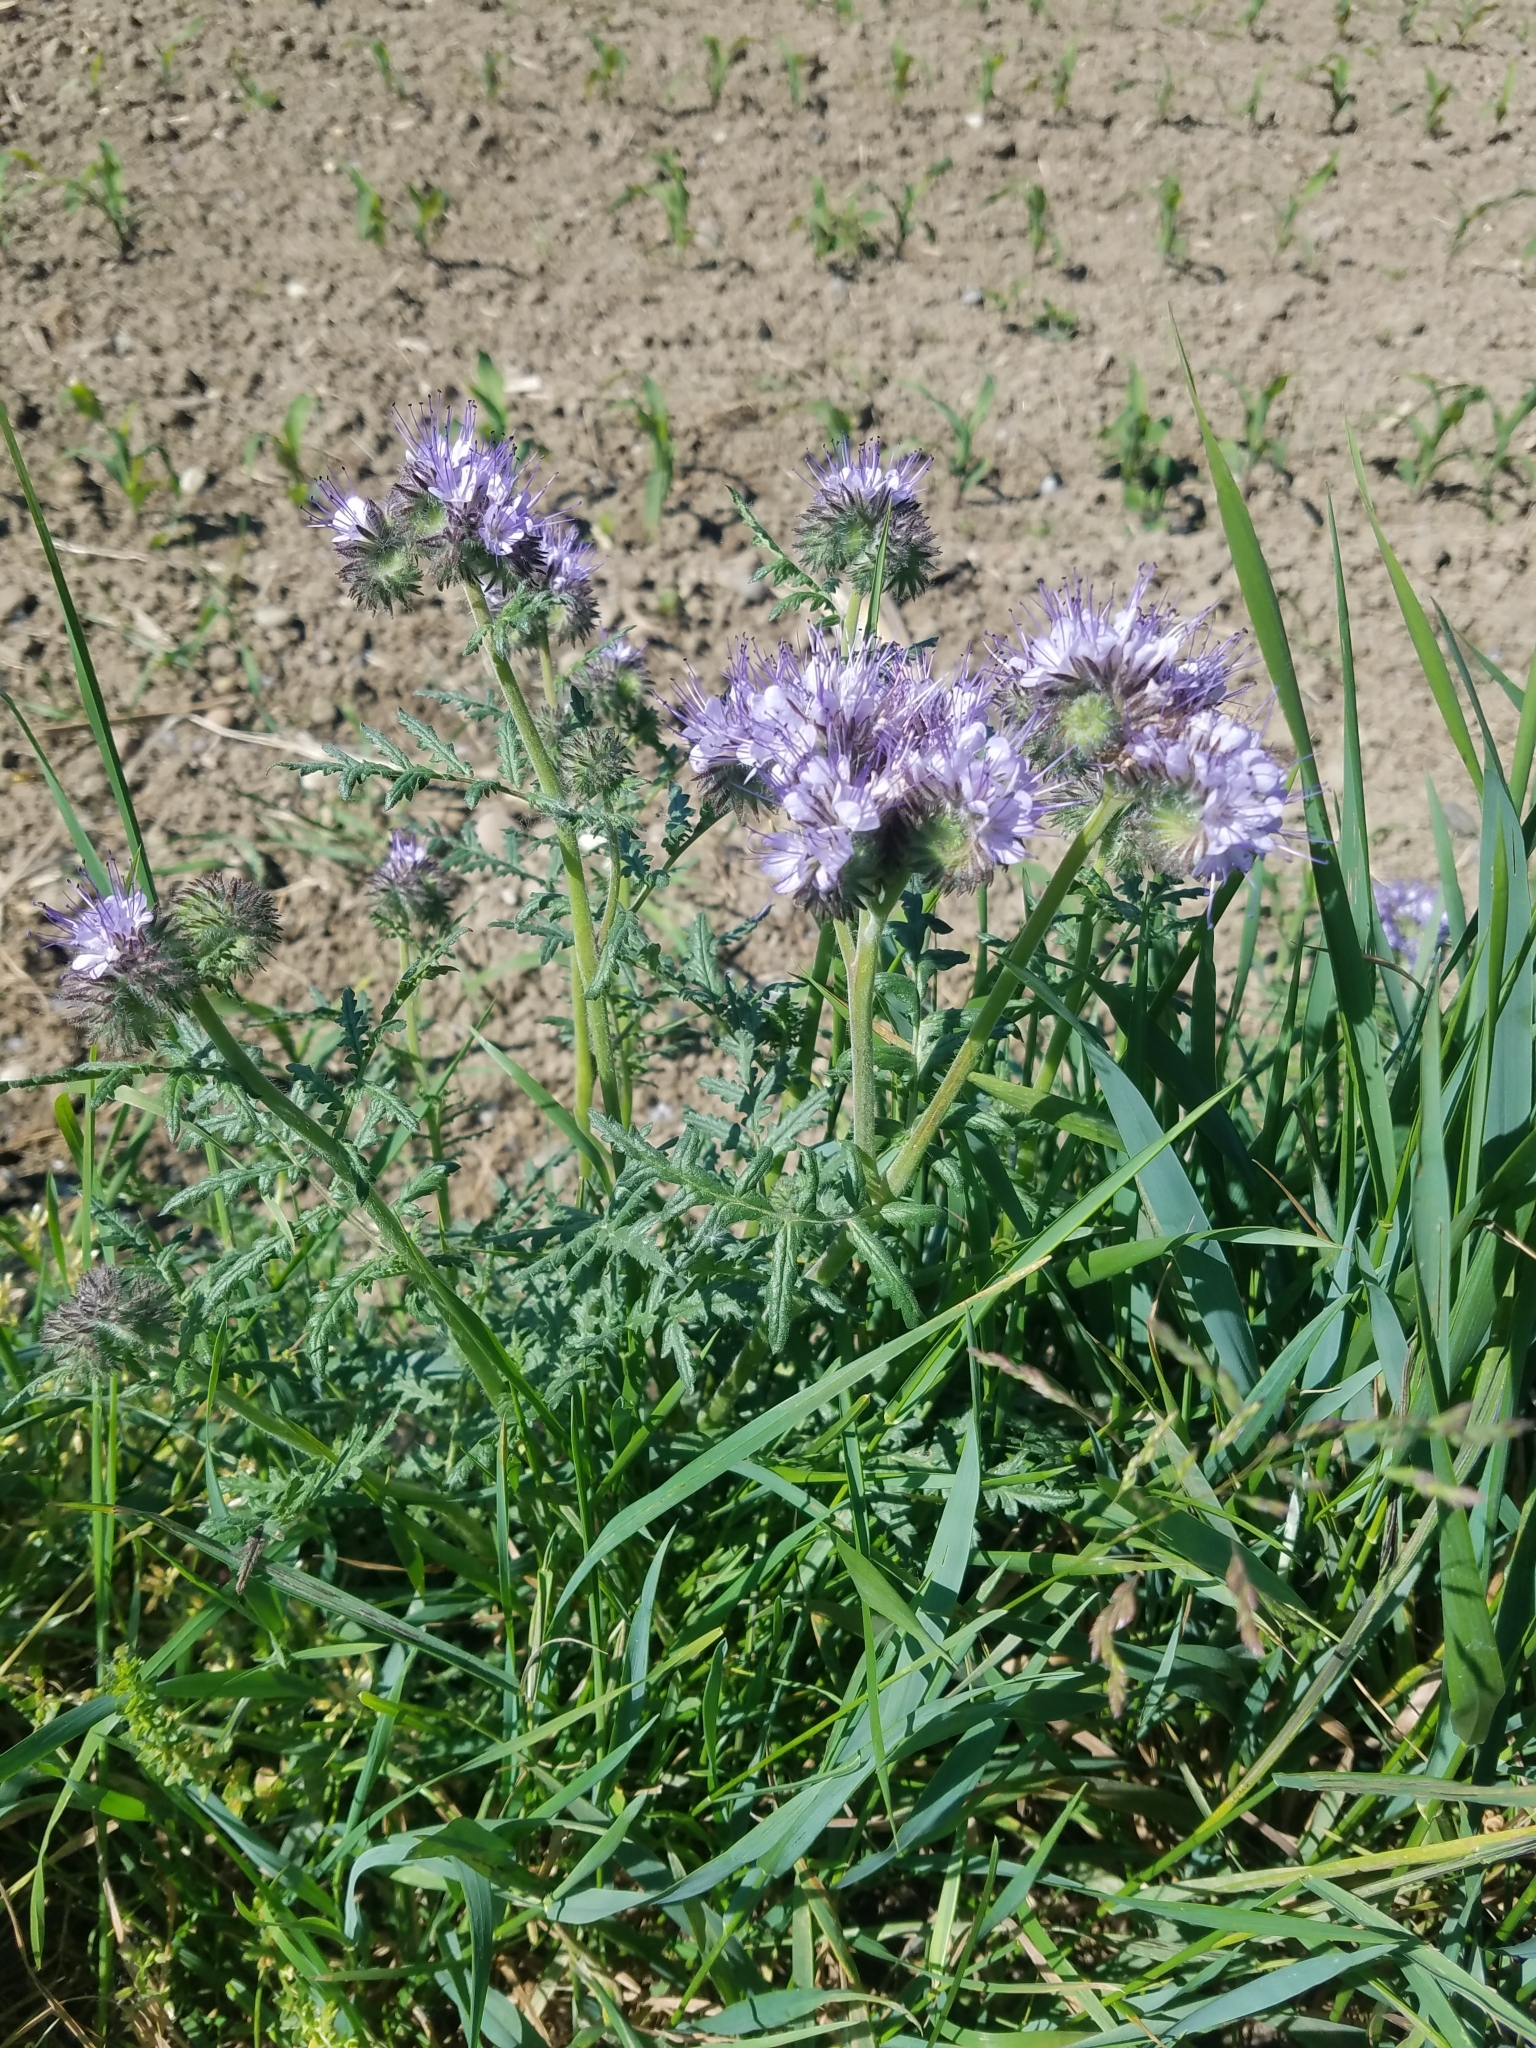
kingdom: Plantae
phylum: Tracheophyta
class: Magnoliopsida
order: Boraginales
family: Hydrophyllaceae
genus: Phacelia
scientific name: Phacelia tanacetifolia
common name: Phacelia
